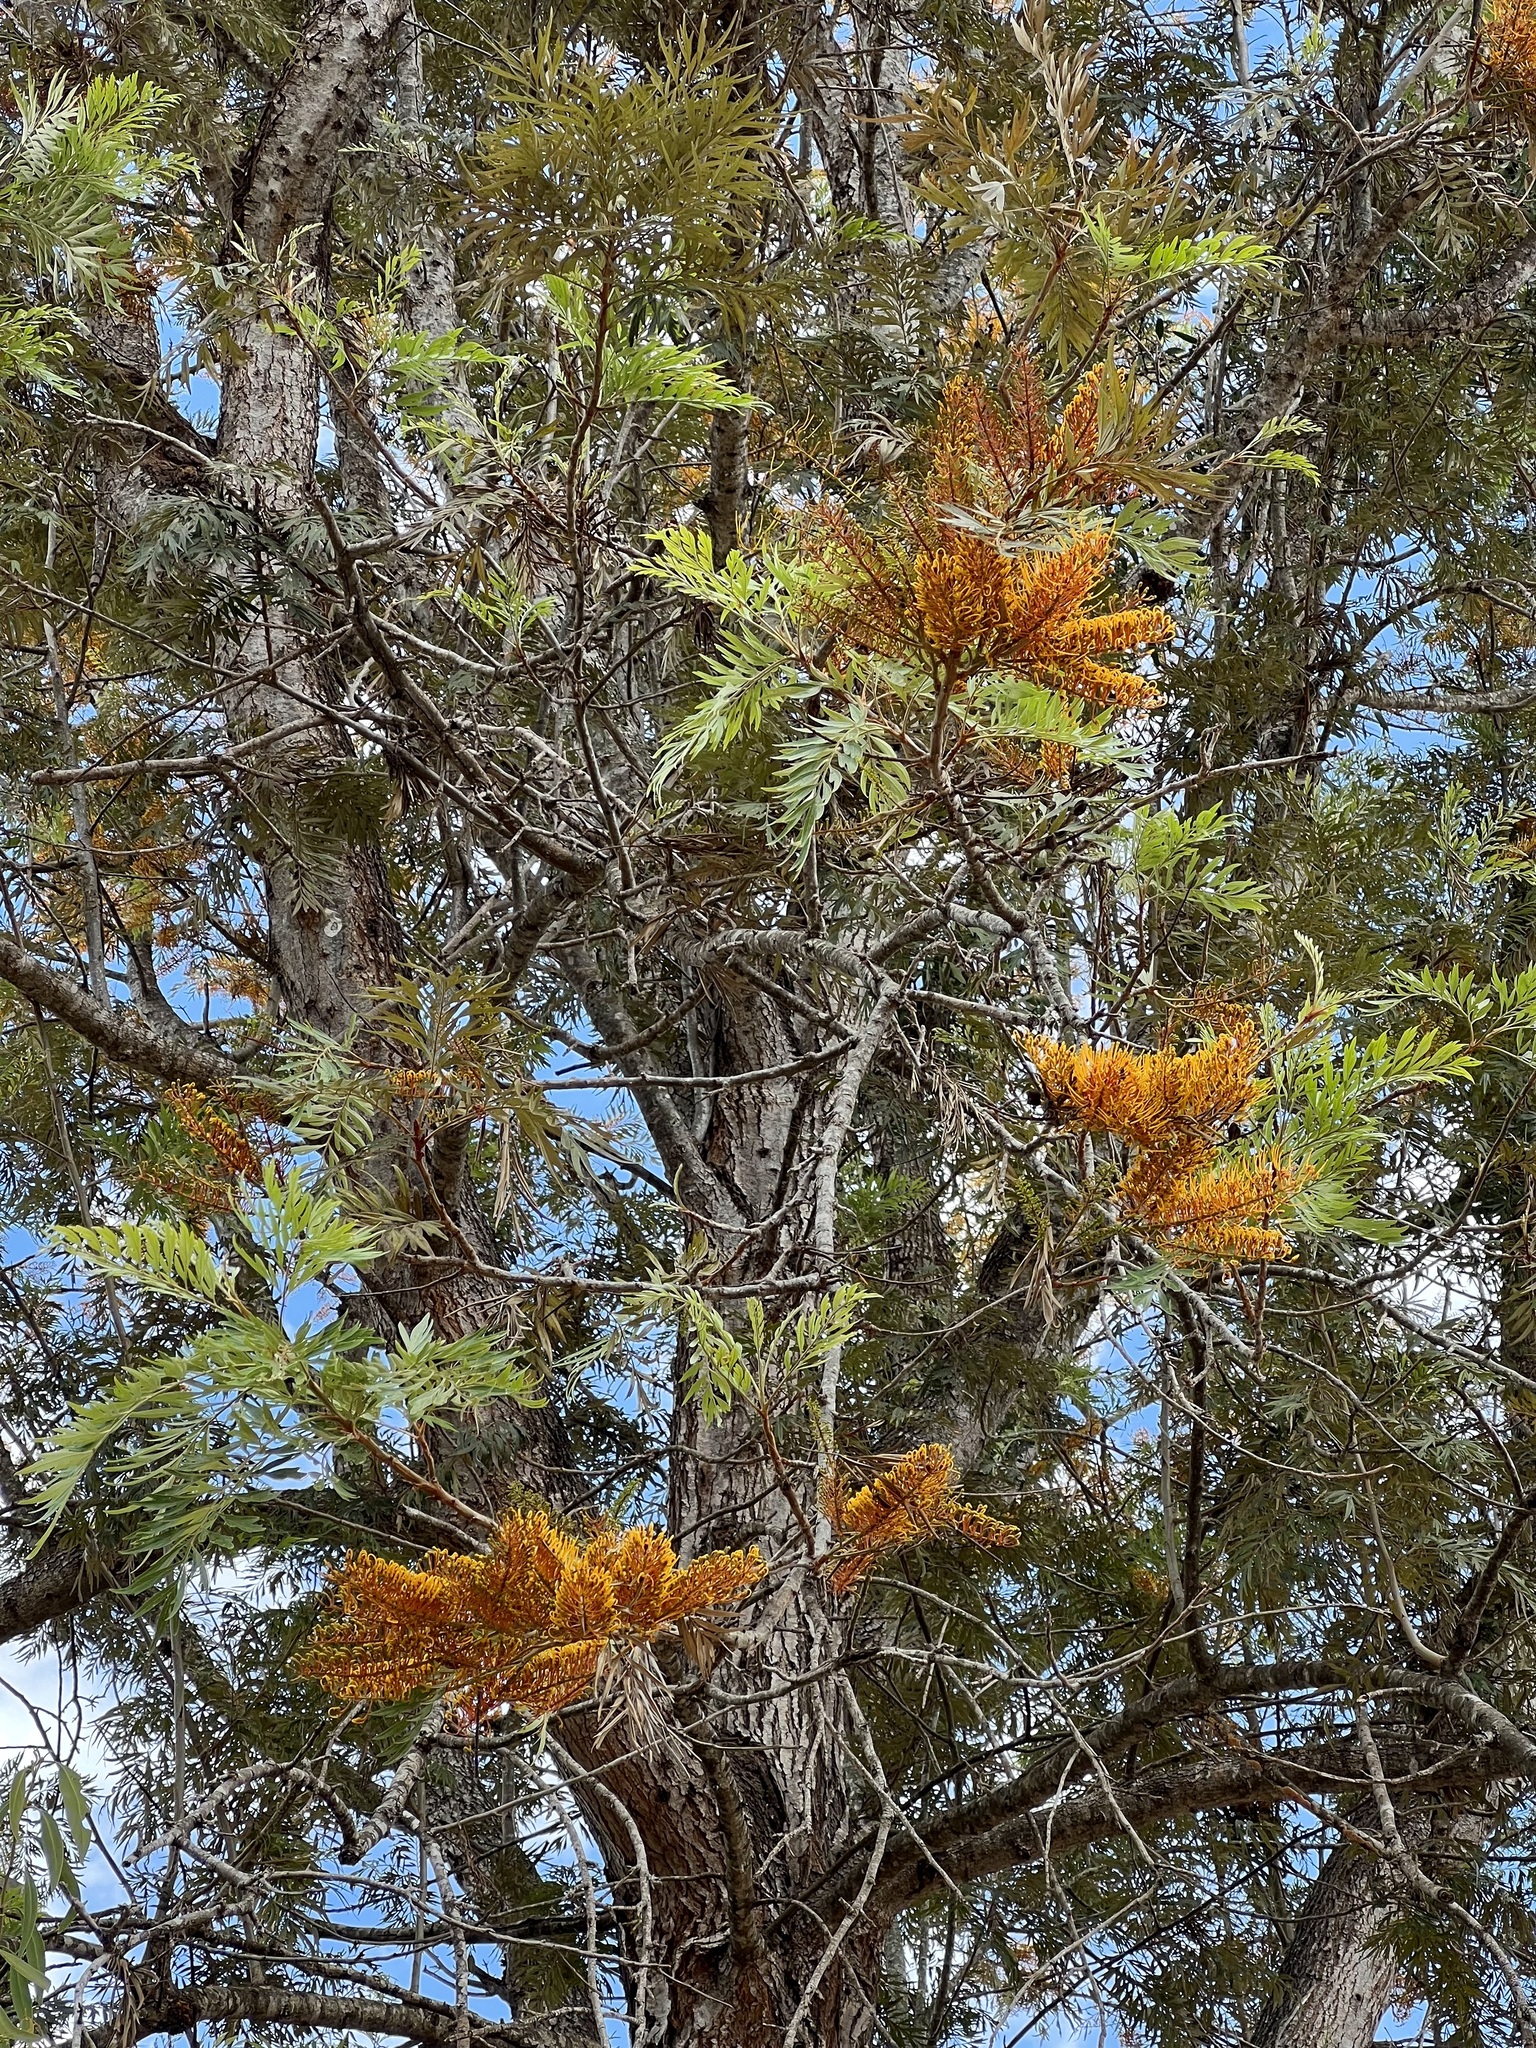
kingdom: Plantae
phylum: Tracheophyta
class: Magnoliopsida
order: Proteales
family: Proteaceae
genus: Grevillea
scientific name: Grevillea robusta
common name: Silkoak
